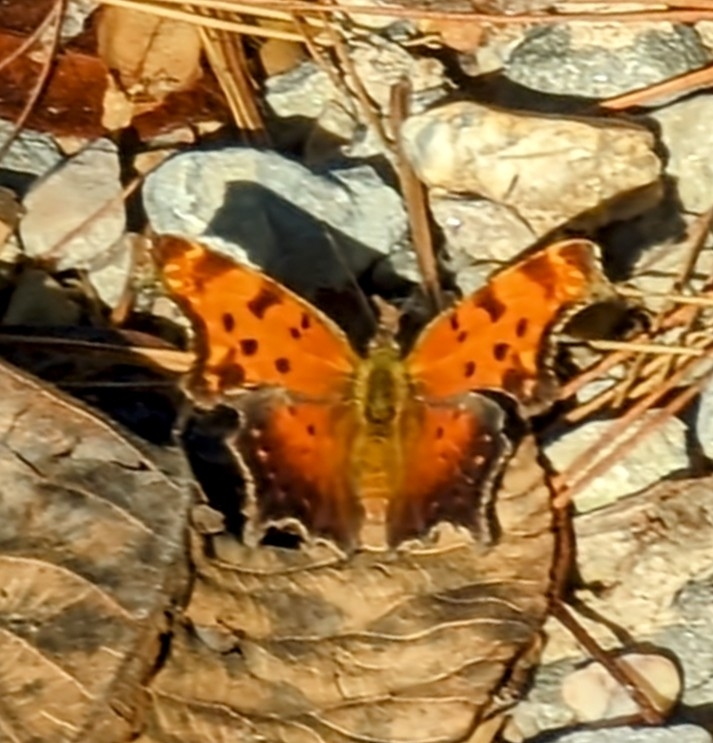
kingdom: Animalia
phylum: Arthropoda
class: Insecta
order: Lepidoptera
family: Nymphalidae
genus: Polygonia
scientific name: Polygonia progne
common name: Gray comma
